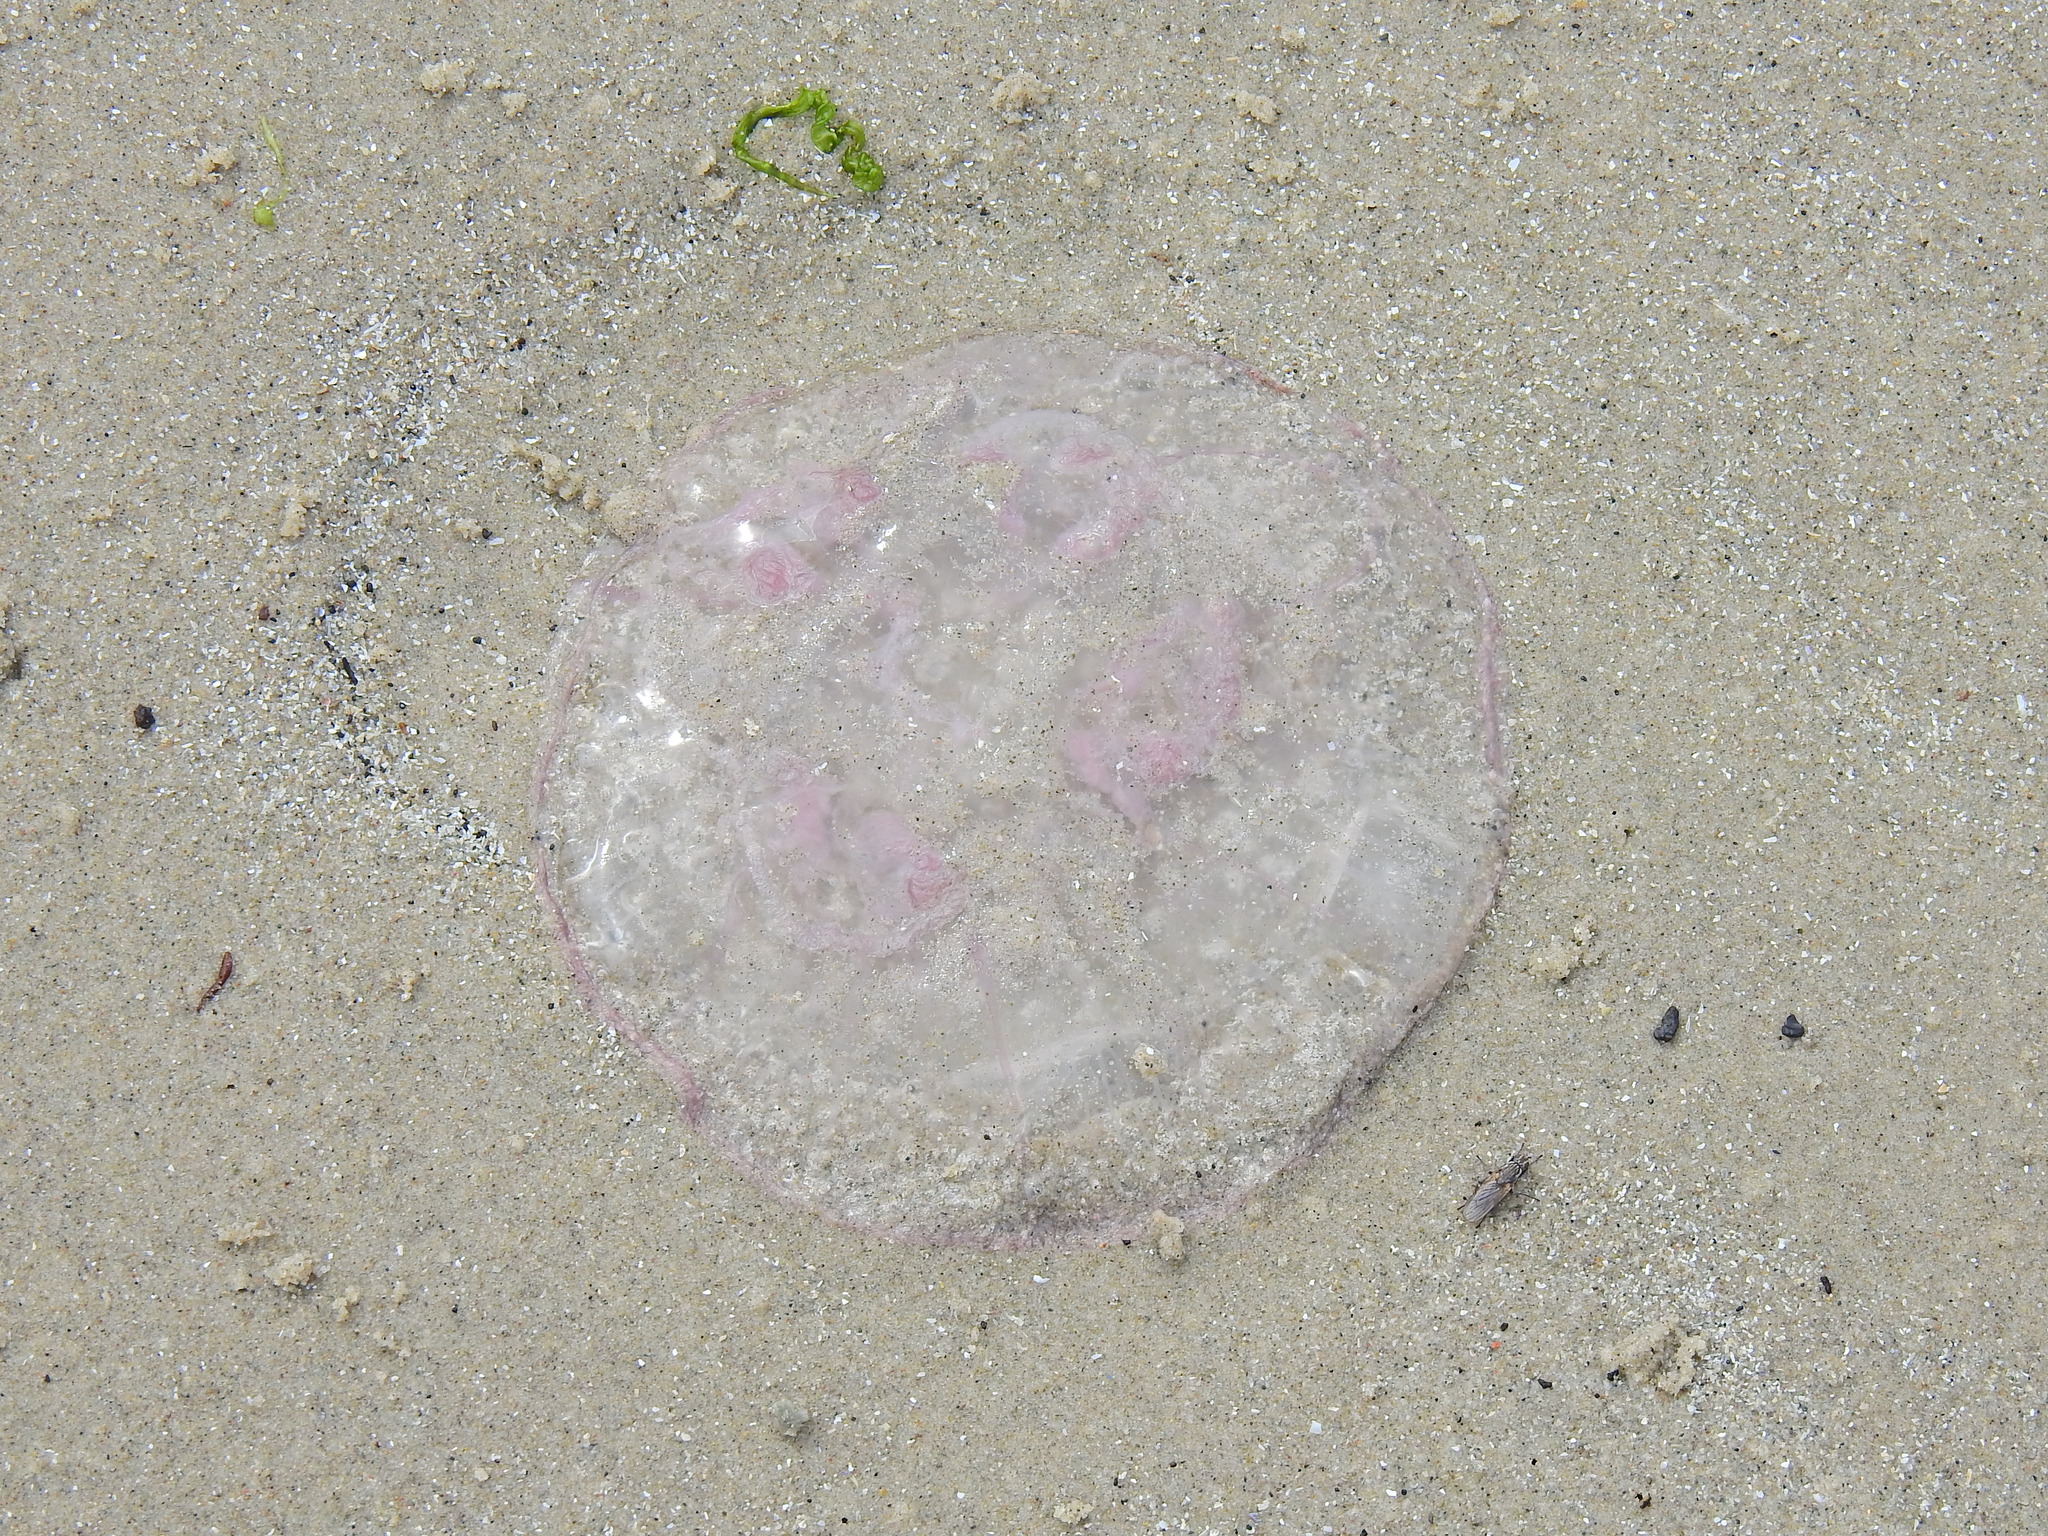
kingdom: Animalia
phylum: Cnidaria
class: Scyphozoa
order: Semaeostomeae
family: Ulmaridae
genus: Aurelia
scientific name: Aurelia aurita
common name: Moon jellyfish
